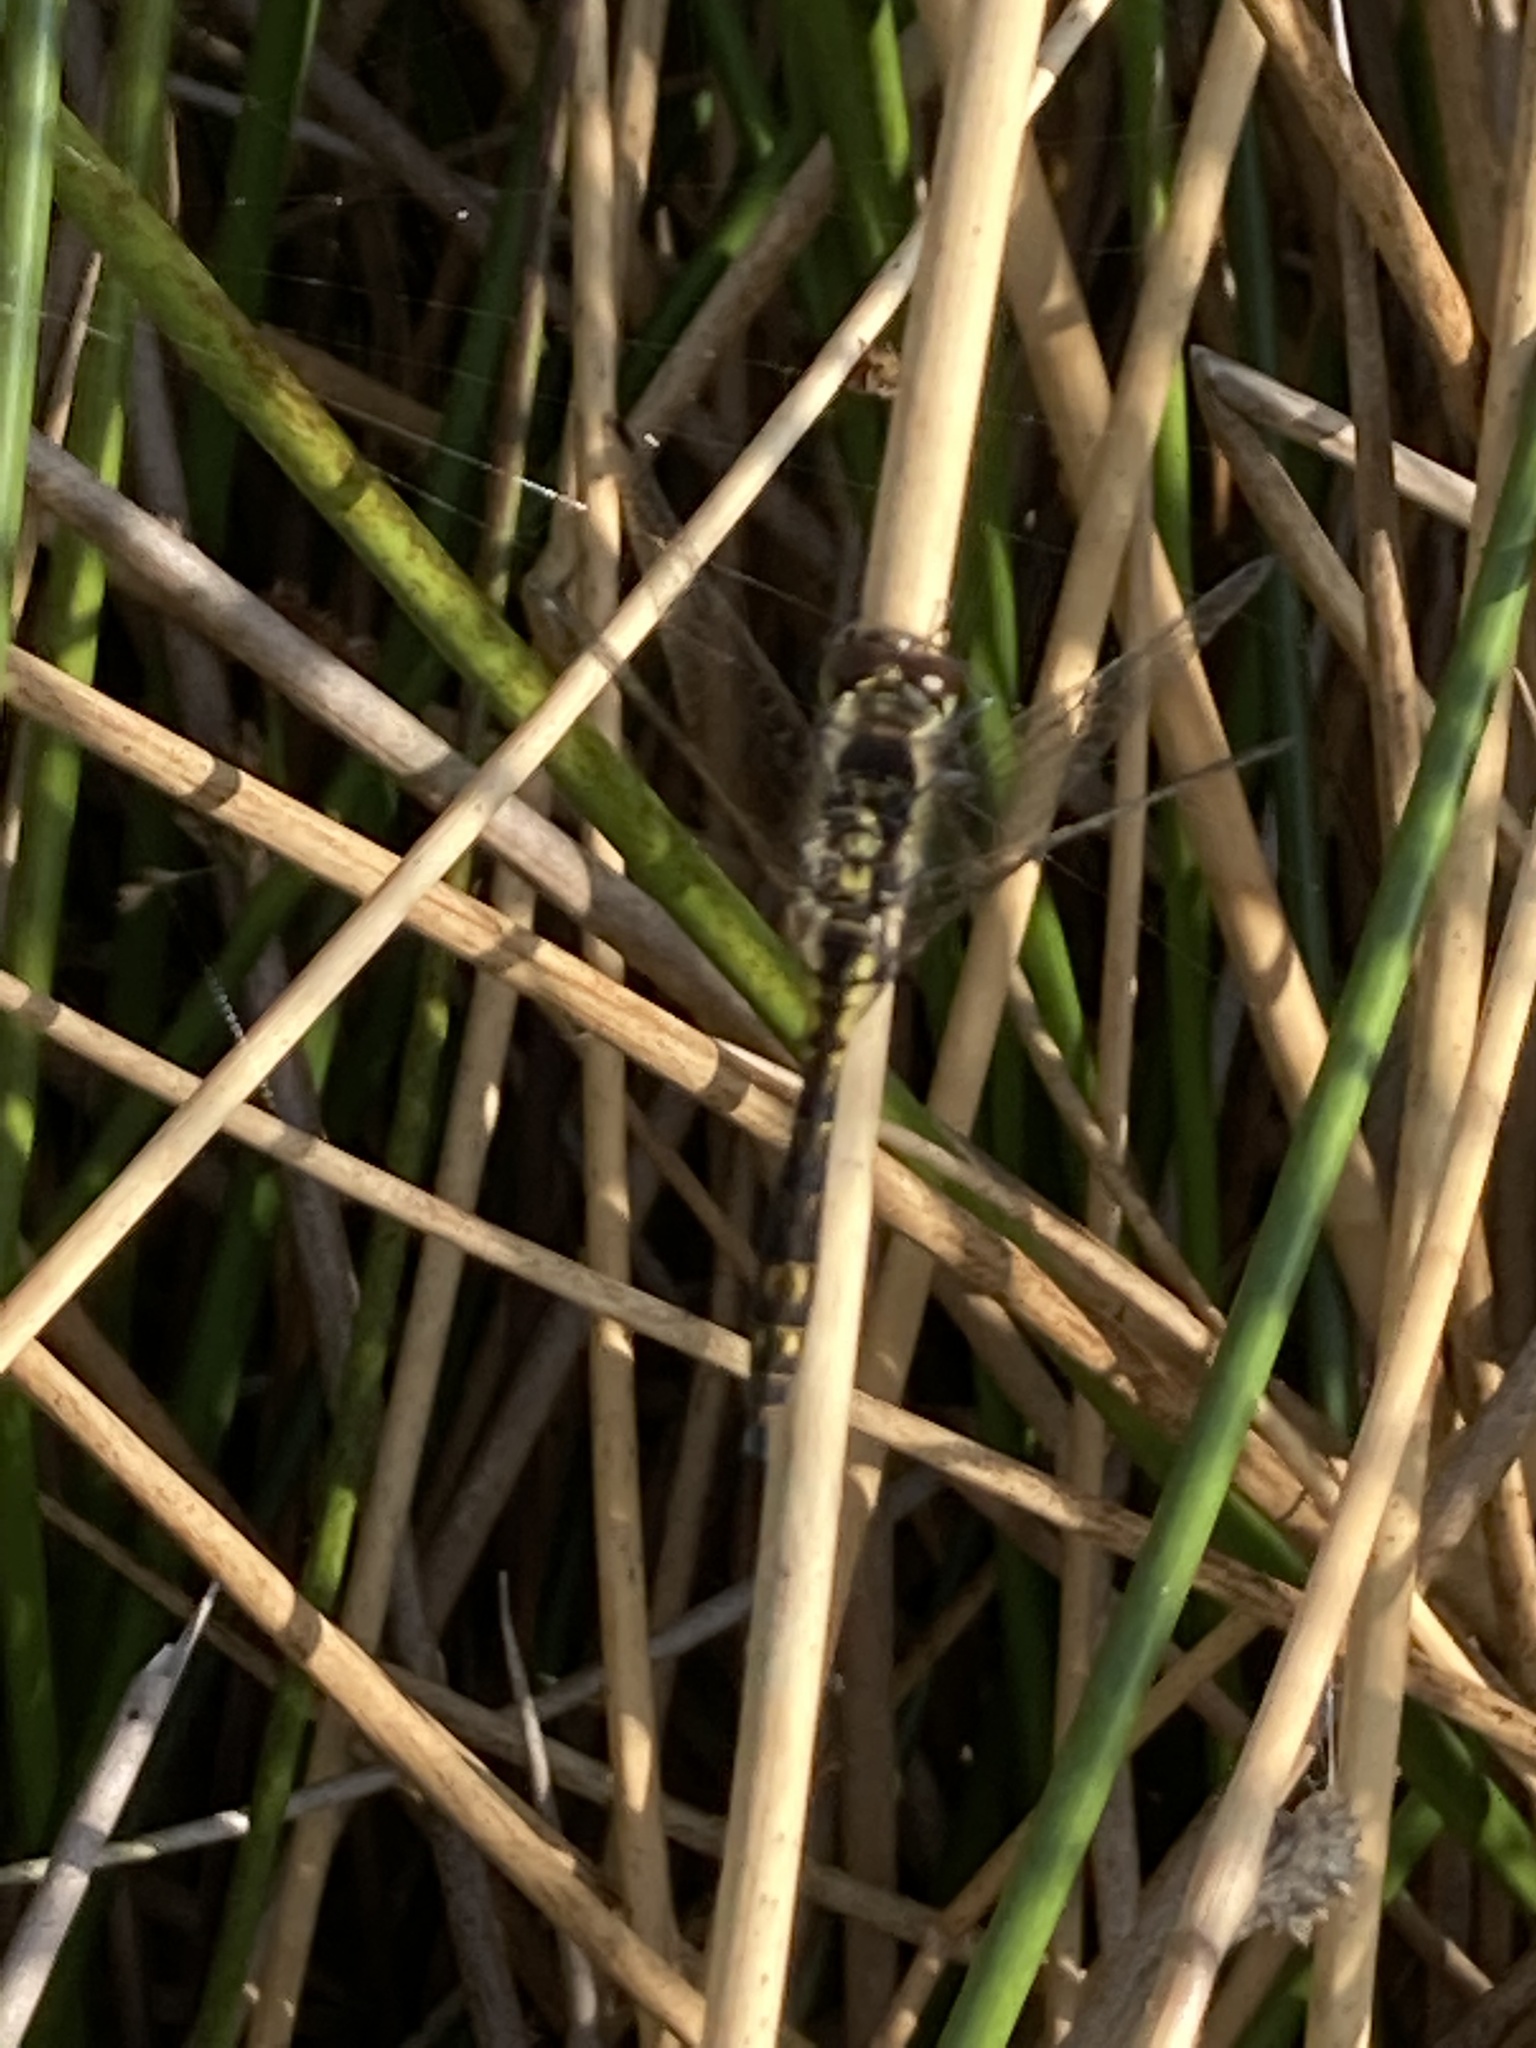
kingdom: Animalia
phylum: Arthropoda
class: Insecta
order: Odonata
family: Libellulidae
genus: Sympetrum
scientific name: Sympetrum danae
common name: Black darter
